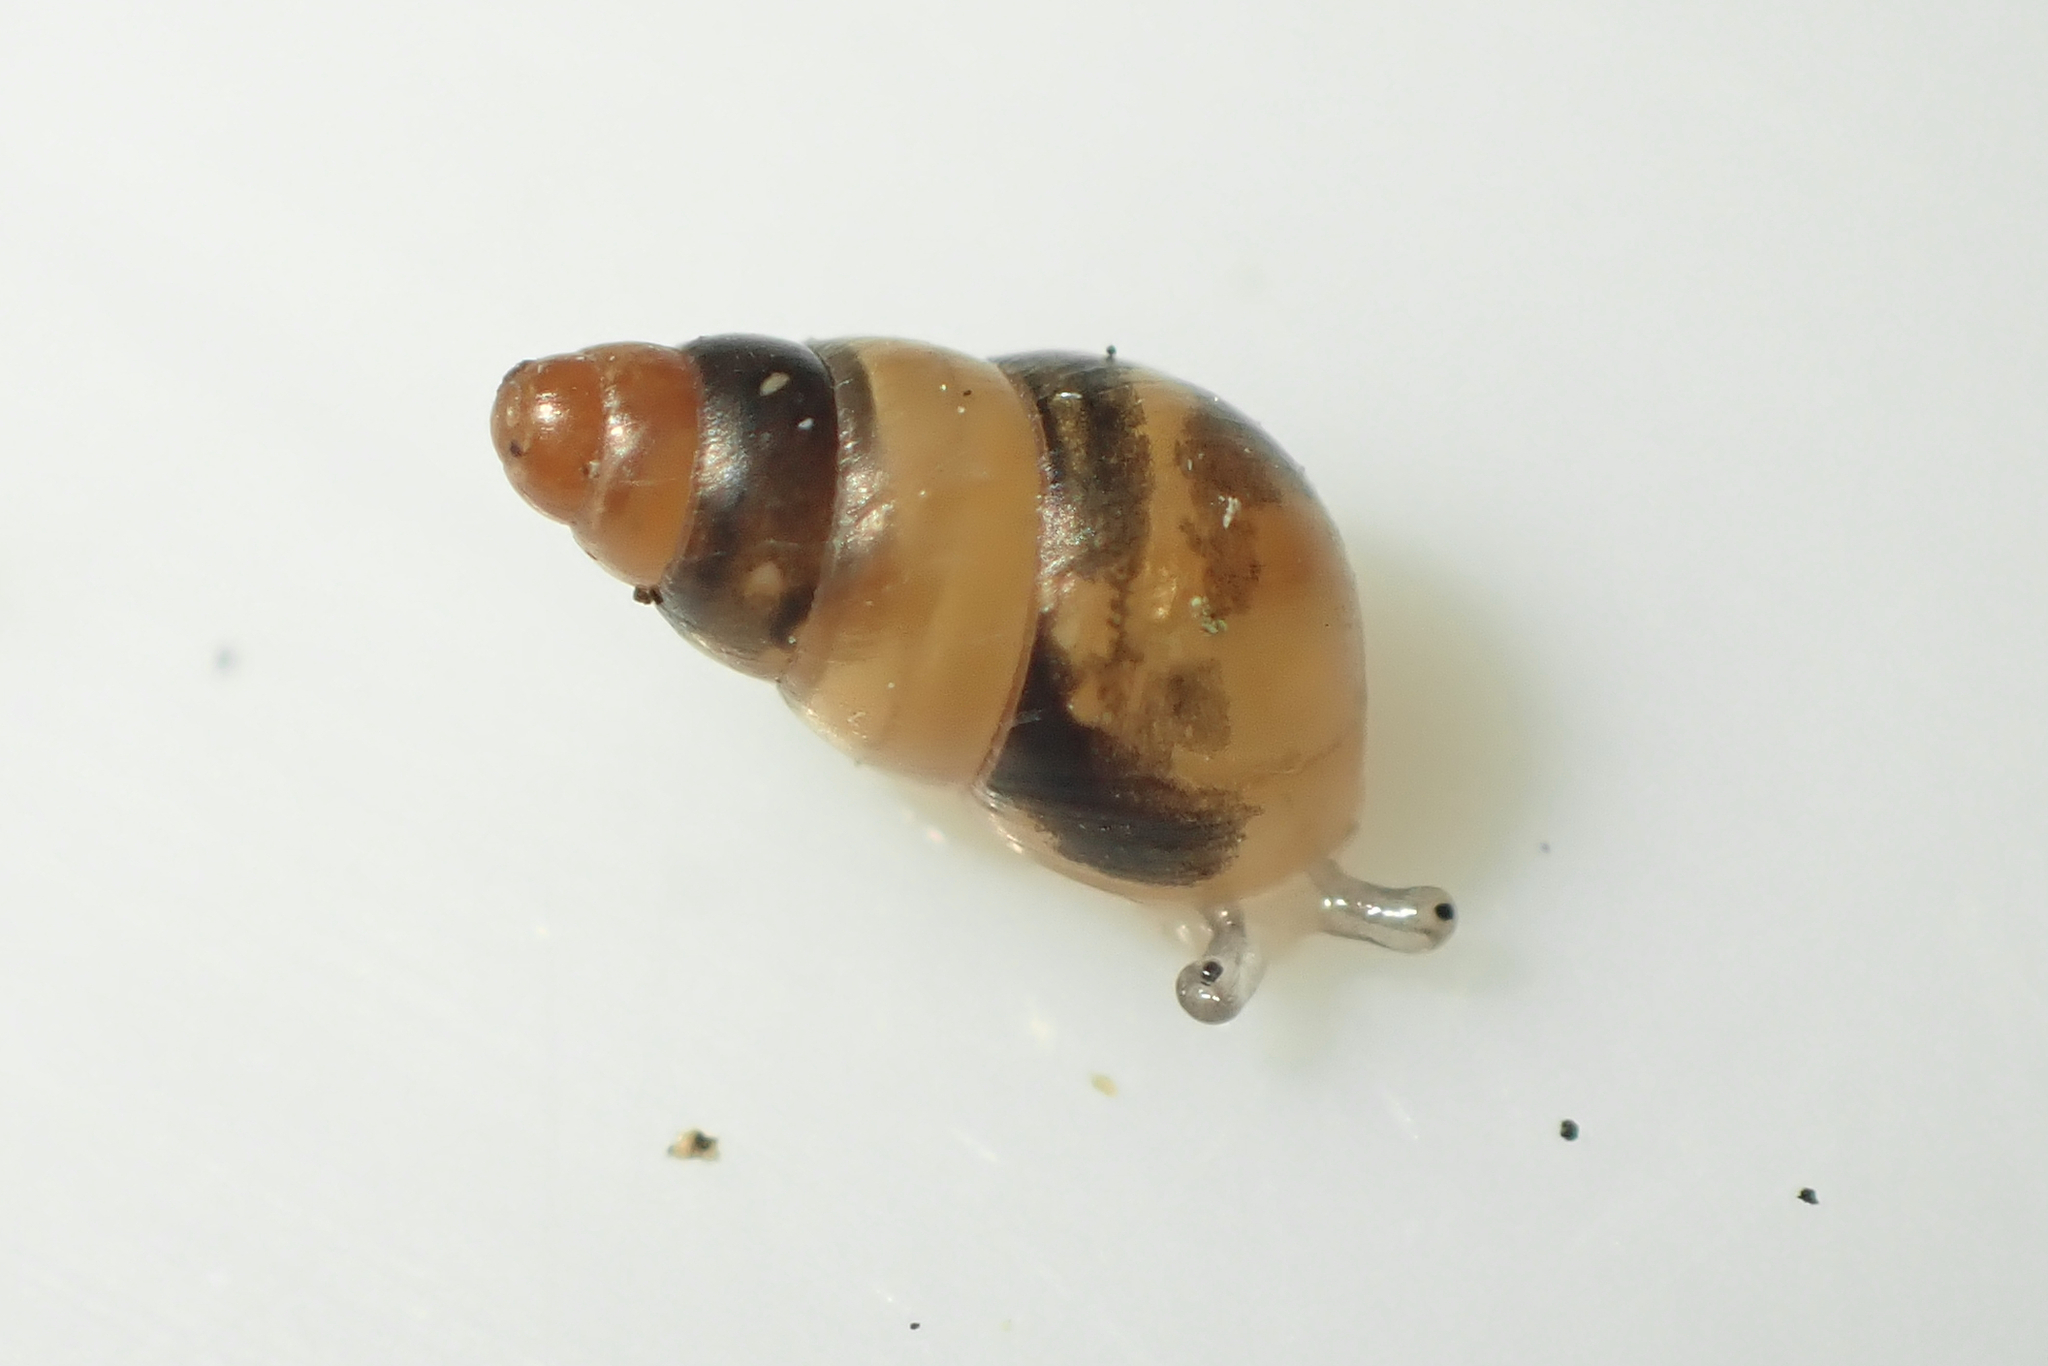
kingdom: Animalia
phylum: Mollusca
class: Gastropoda
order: Stylommatophora
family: Achatinellidae
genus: Tornatellides
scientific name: Tornatellides subperforatus
